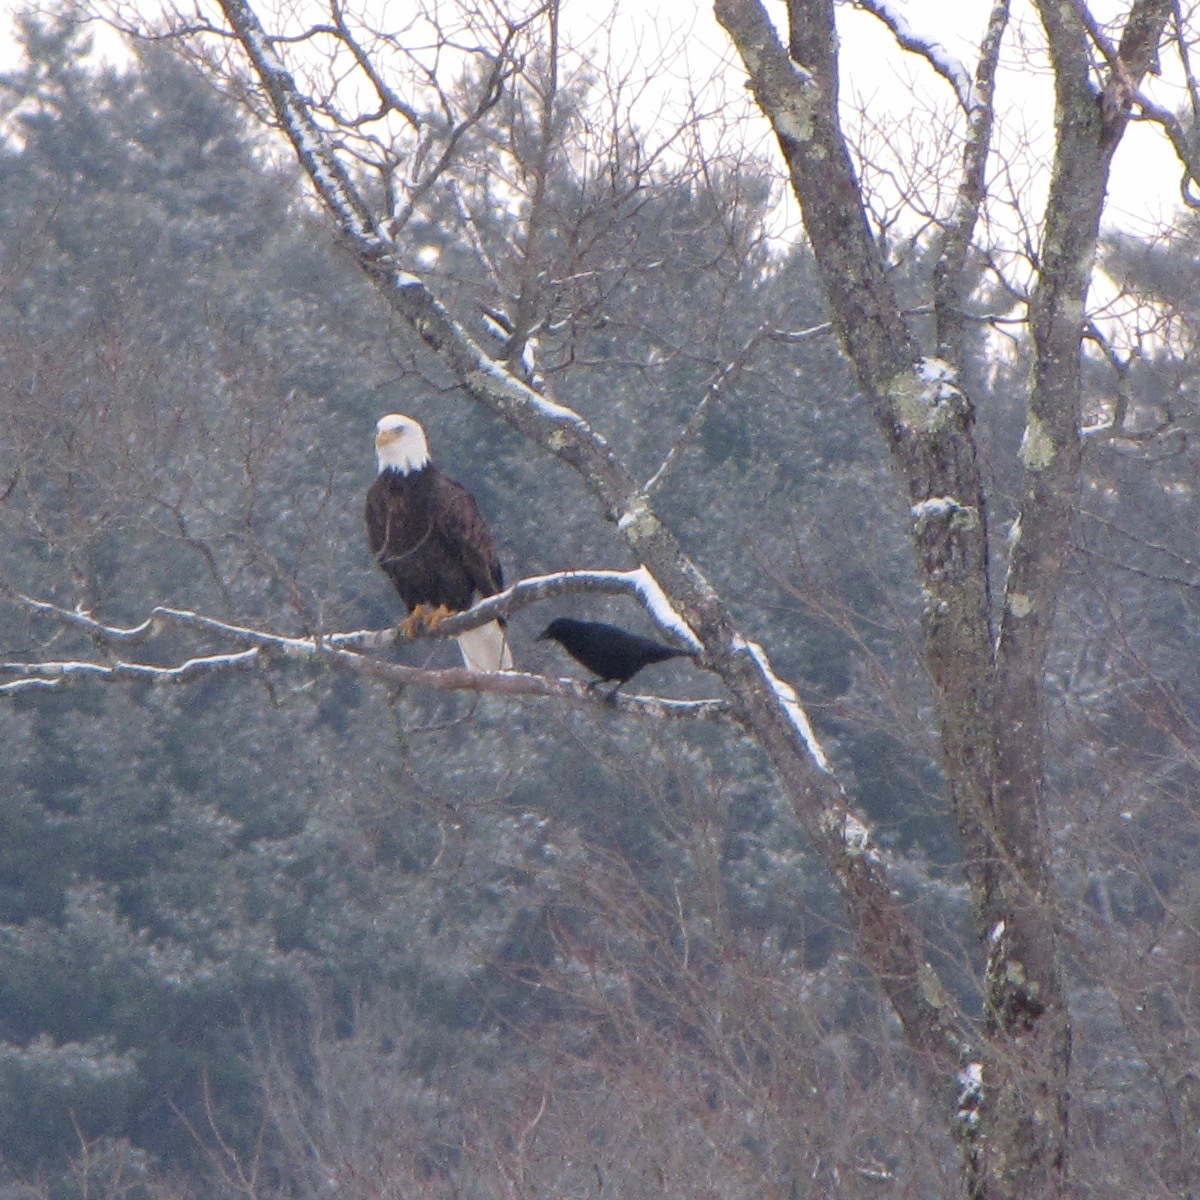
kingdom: Animalia
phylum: Chordata
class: Aves
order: Accipitriformes
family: Accipitridae
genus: Haliaeetus
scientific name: Haliaeetus leucocephalus
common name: Bald eagle
